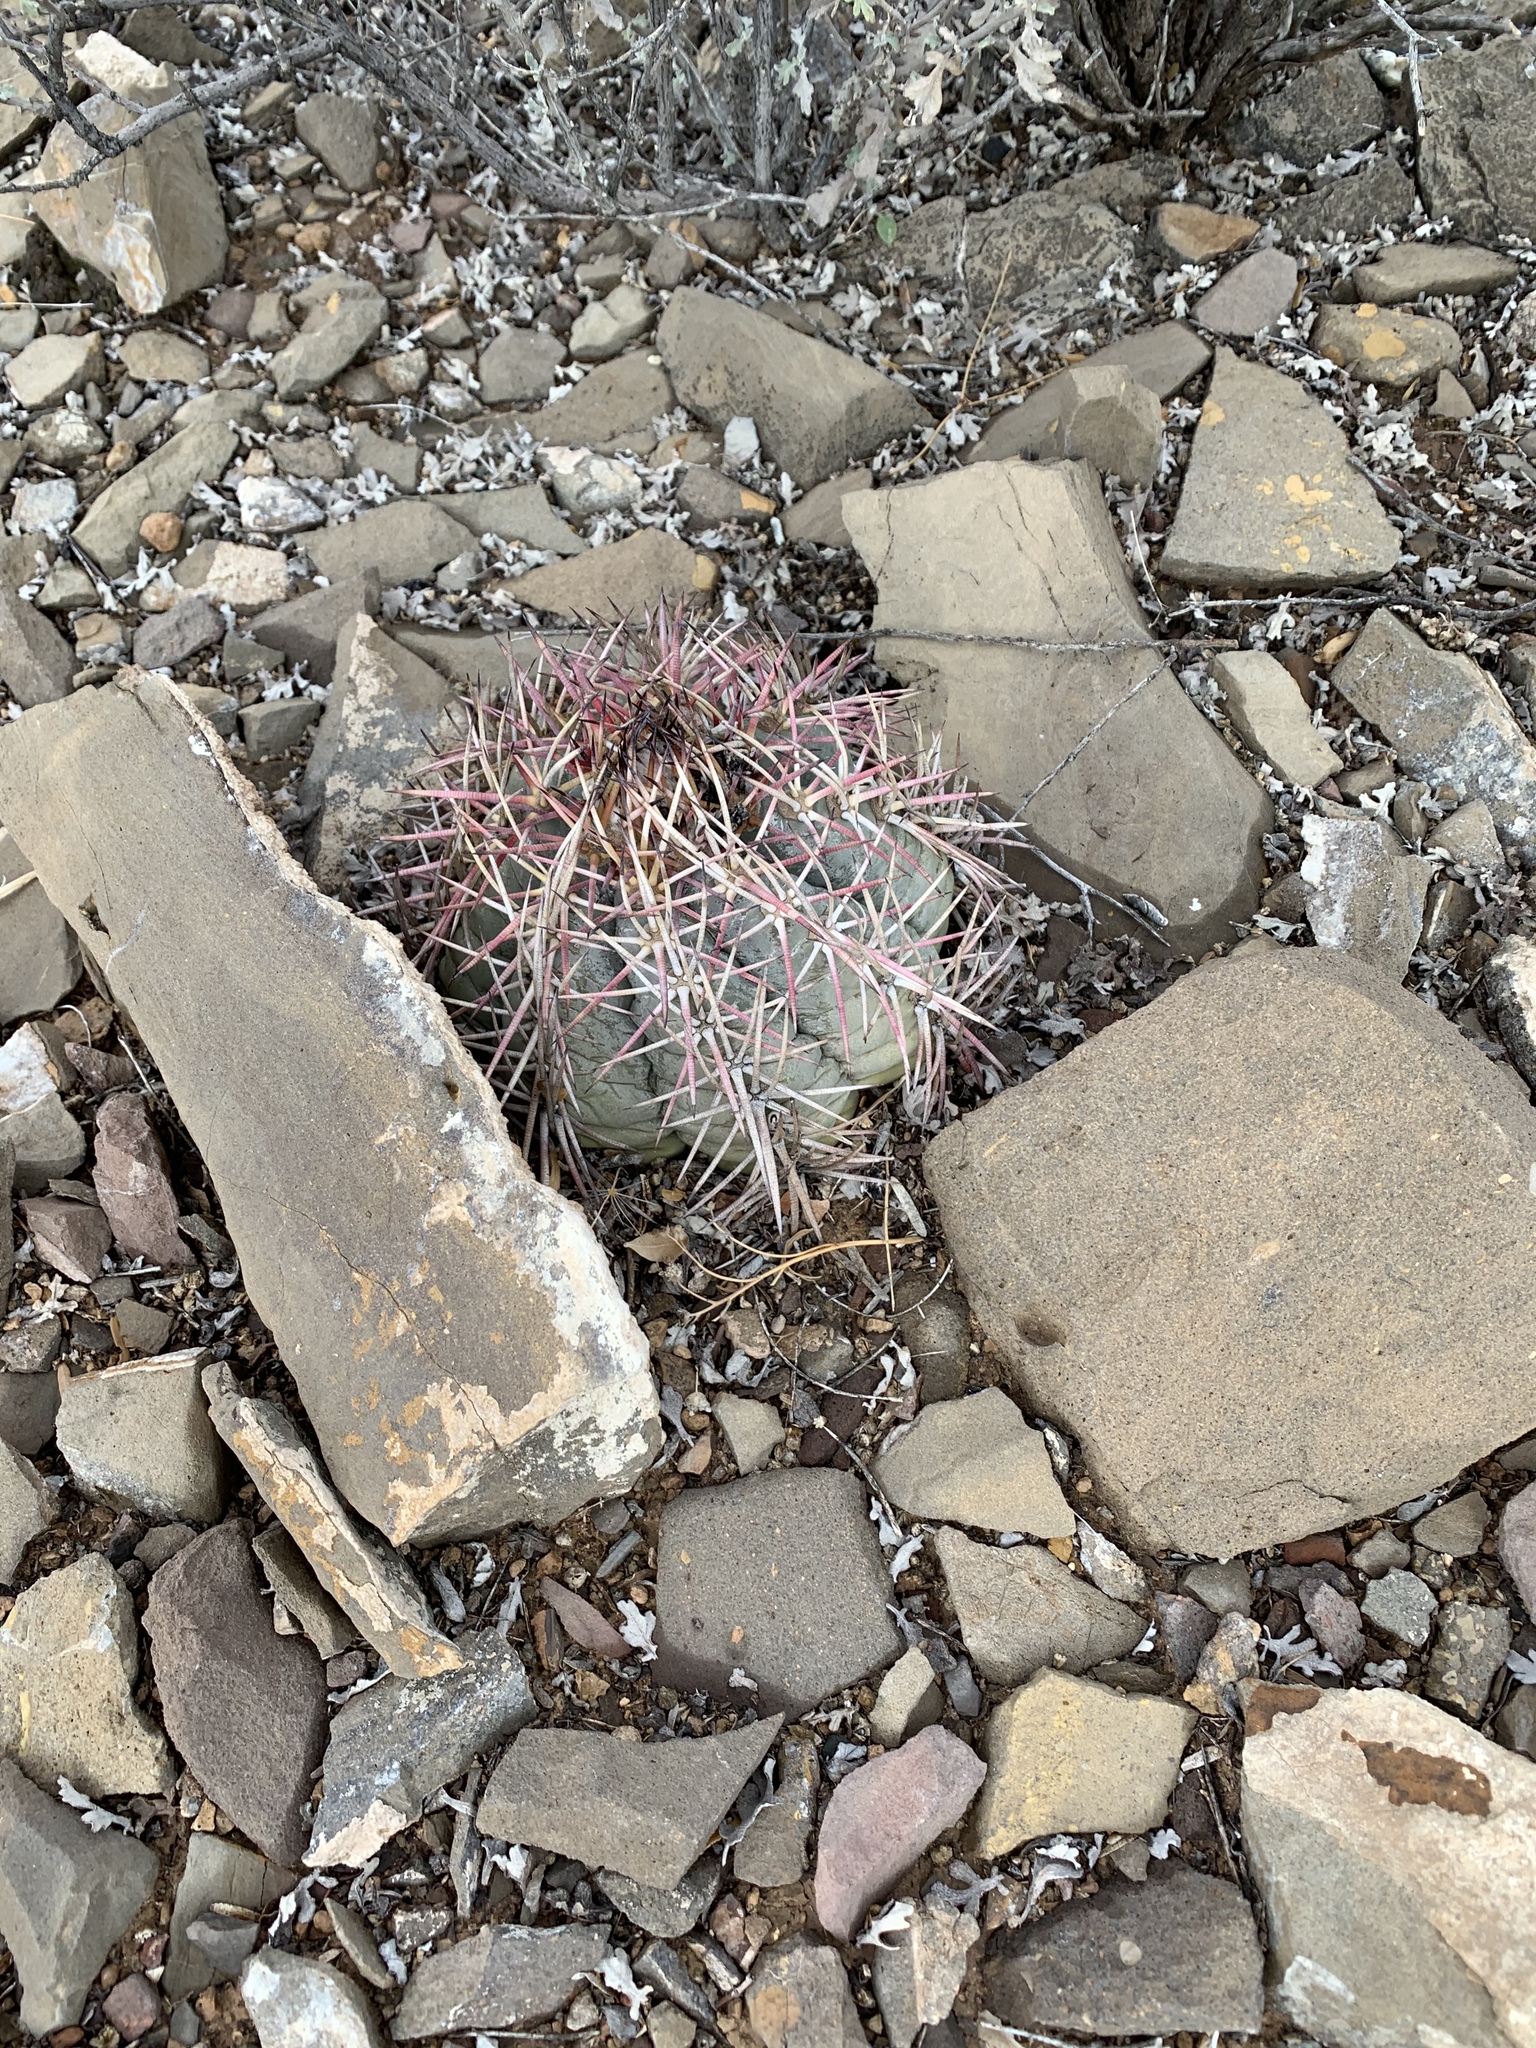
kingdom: Plantae
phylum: Tracheophyta
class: Magnoliopsida
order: Caryophyllales
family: Cactaceae
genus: Echinocactus
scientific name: Echinocactus horizonthalonius
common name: Devilshead
